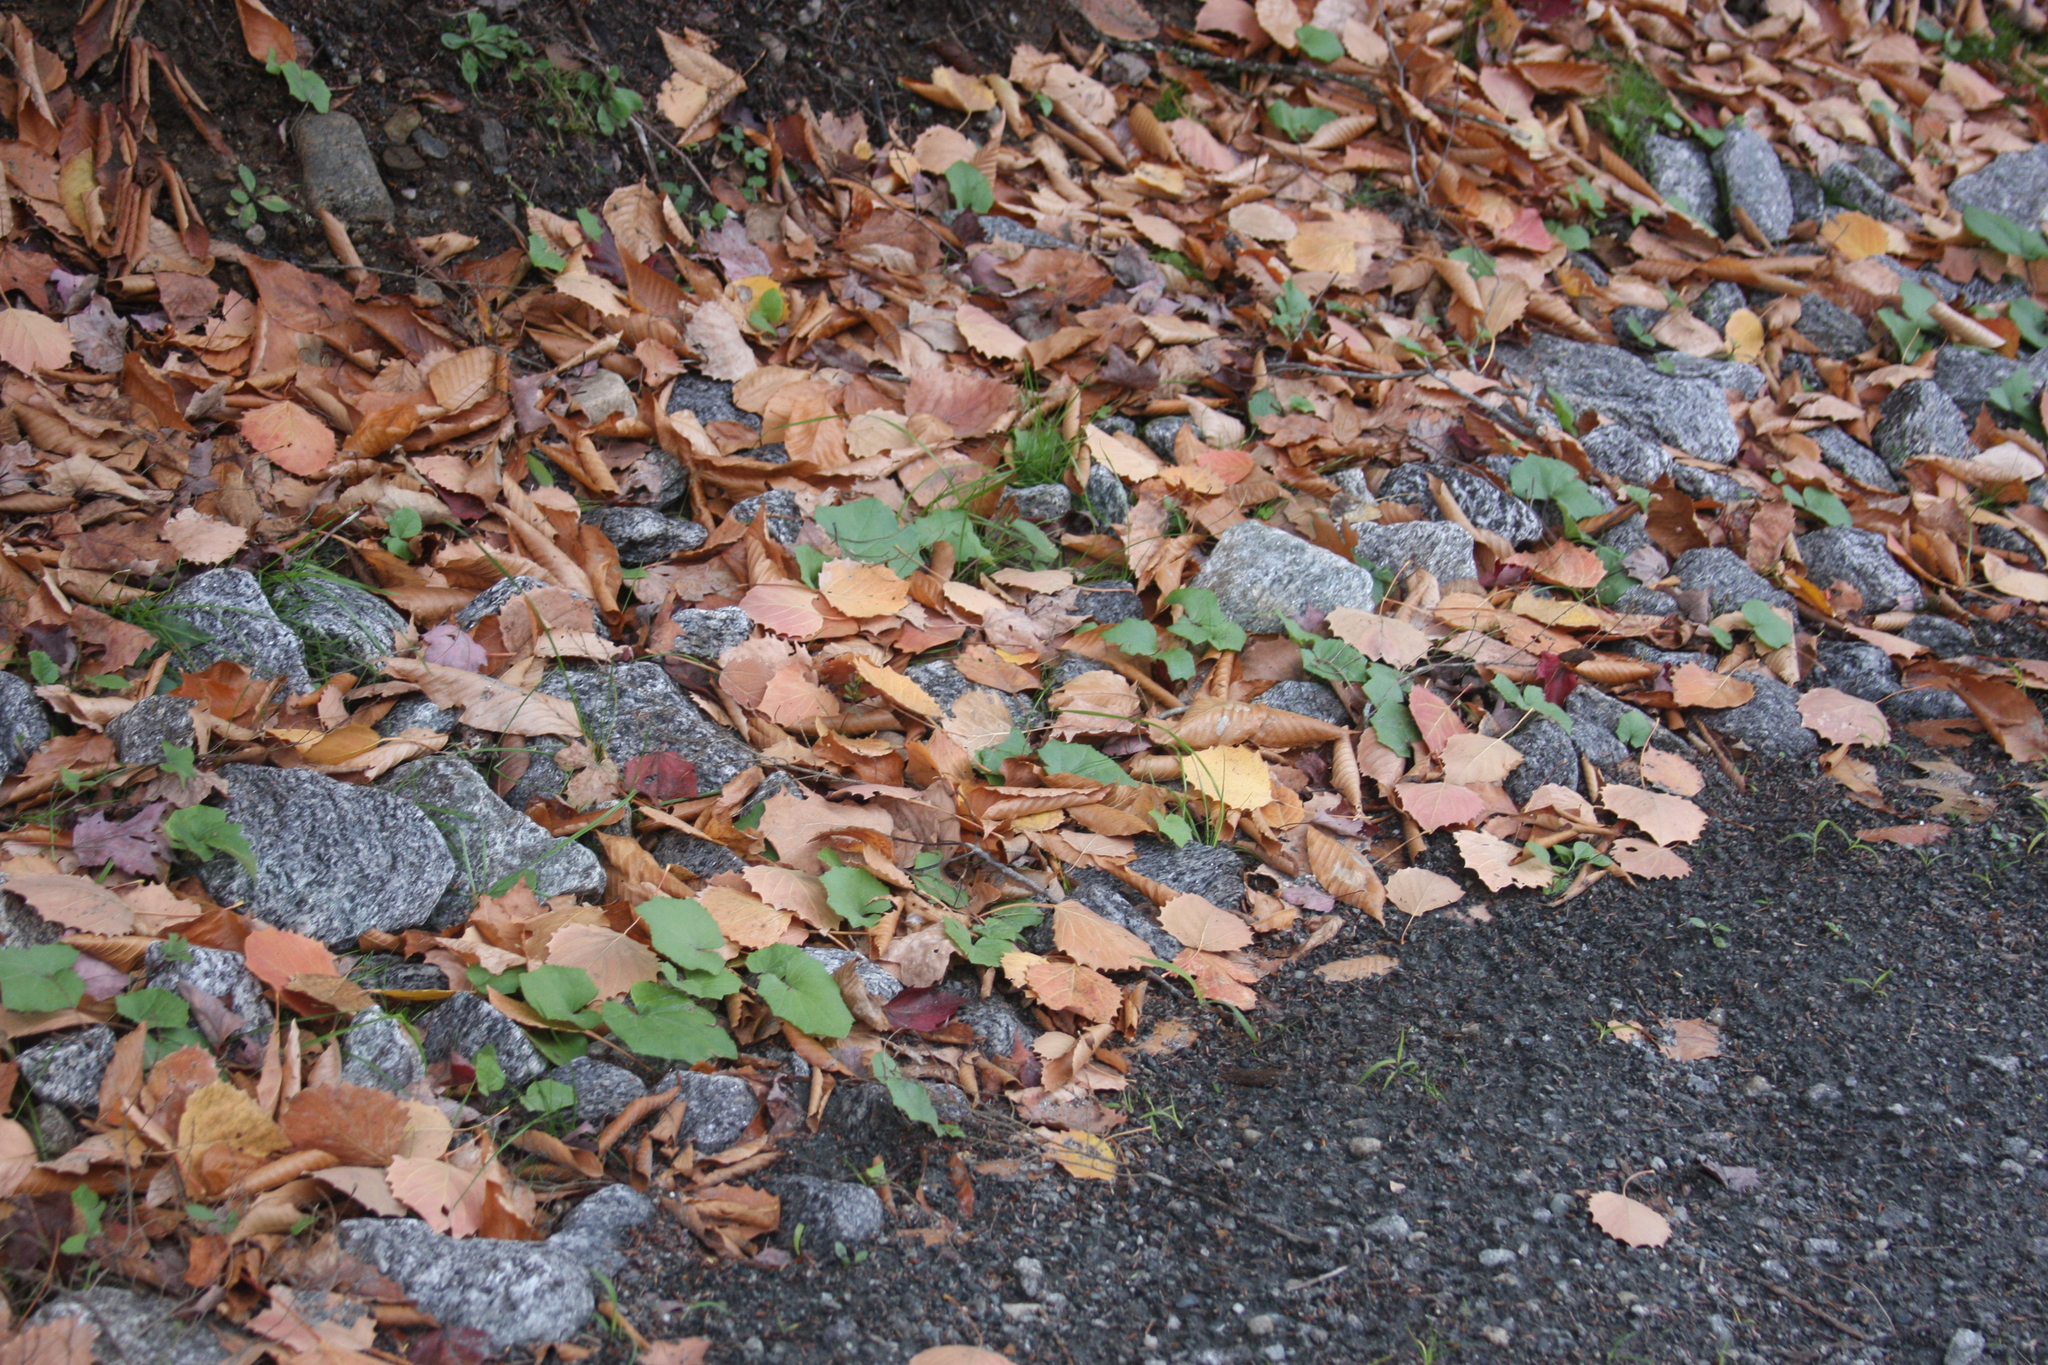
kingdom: Plantae
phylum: Tracheophyta
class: Magnoliopsida
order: Asterales
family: Asteraceae
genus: Tussilago
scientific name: Tussilago farfara
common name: Coltsfoot
